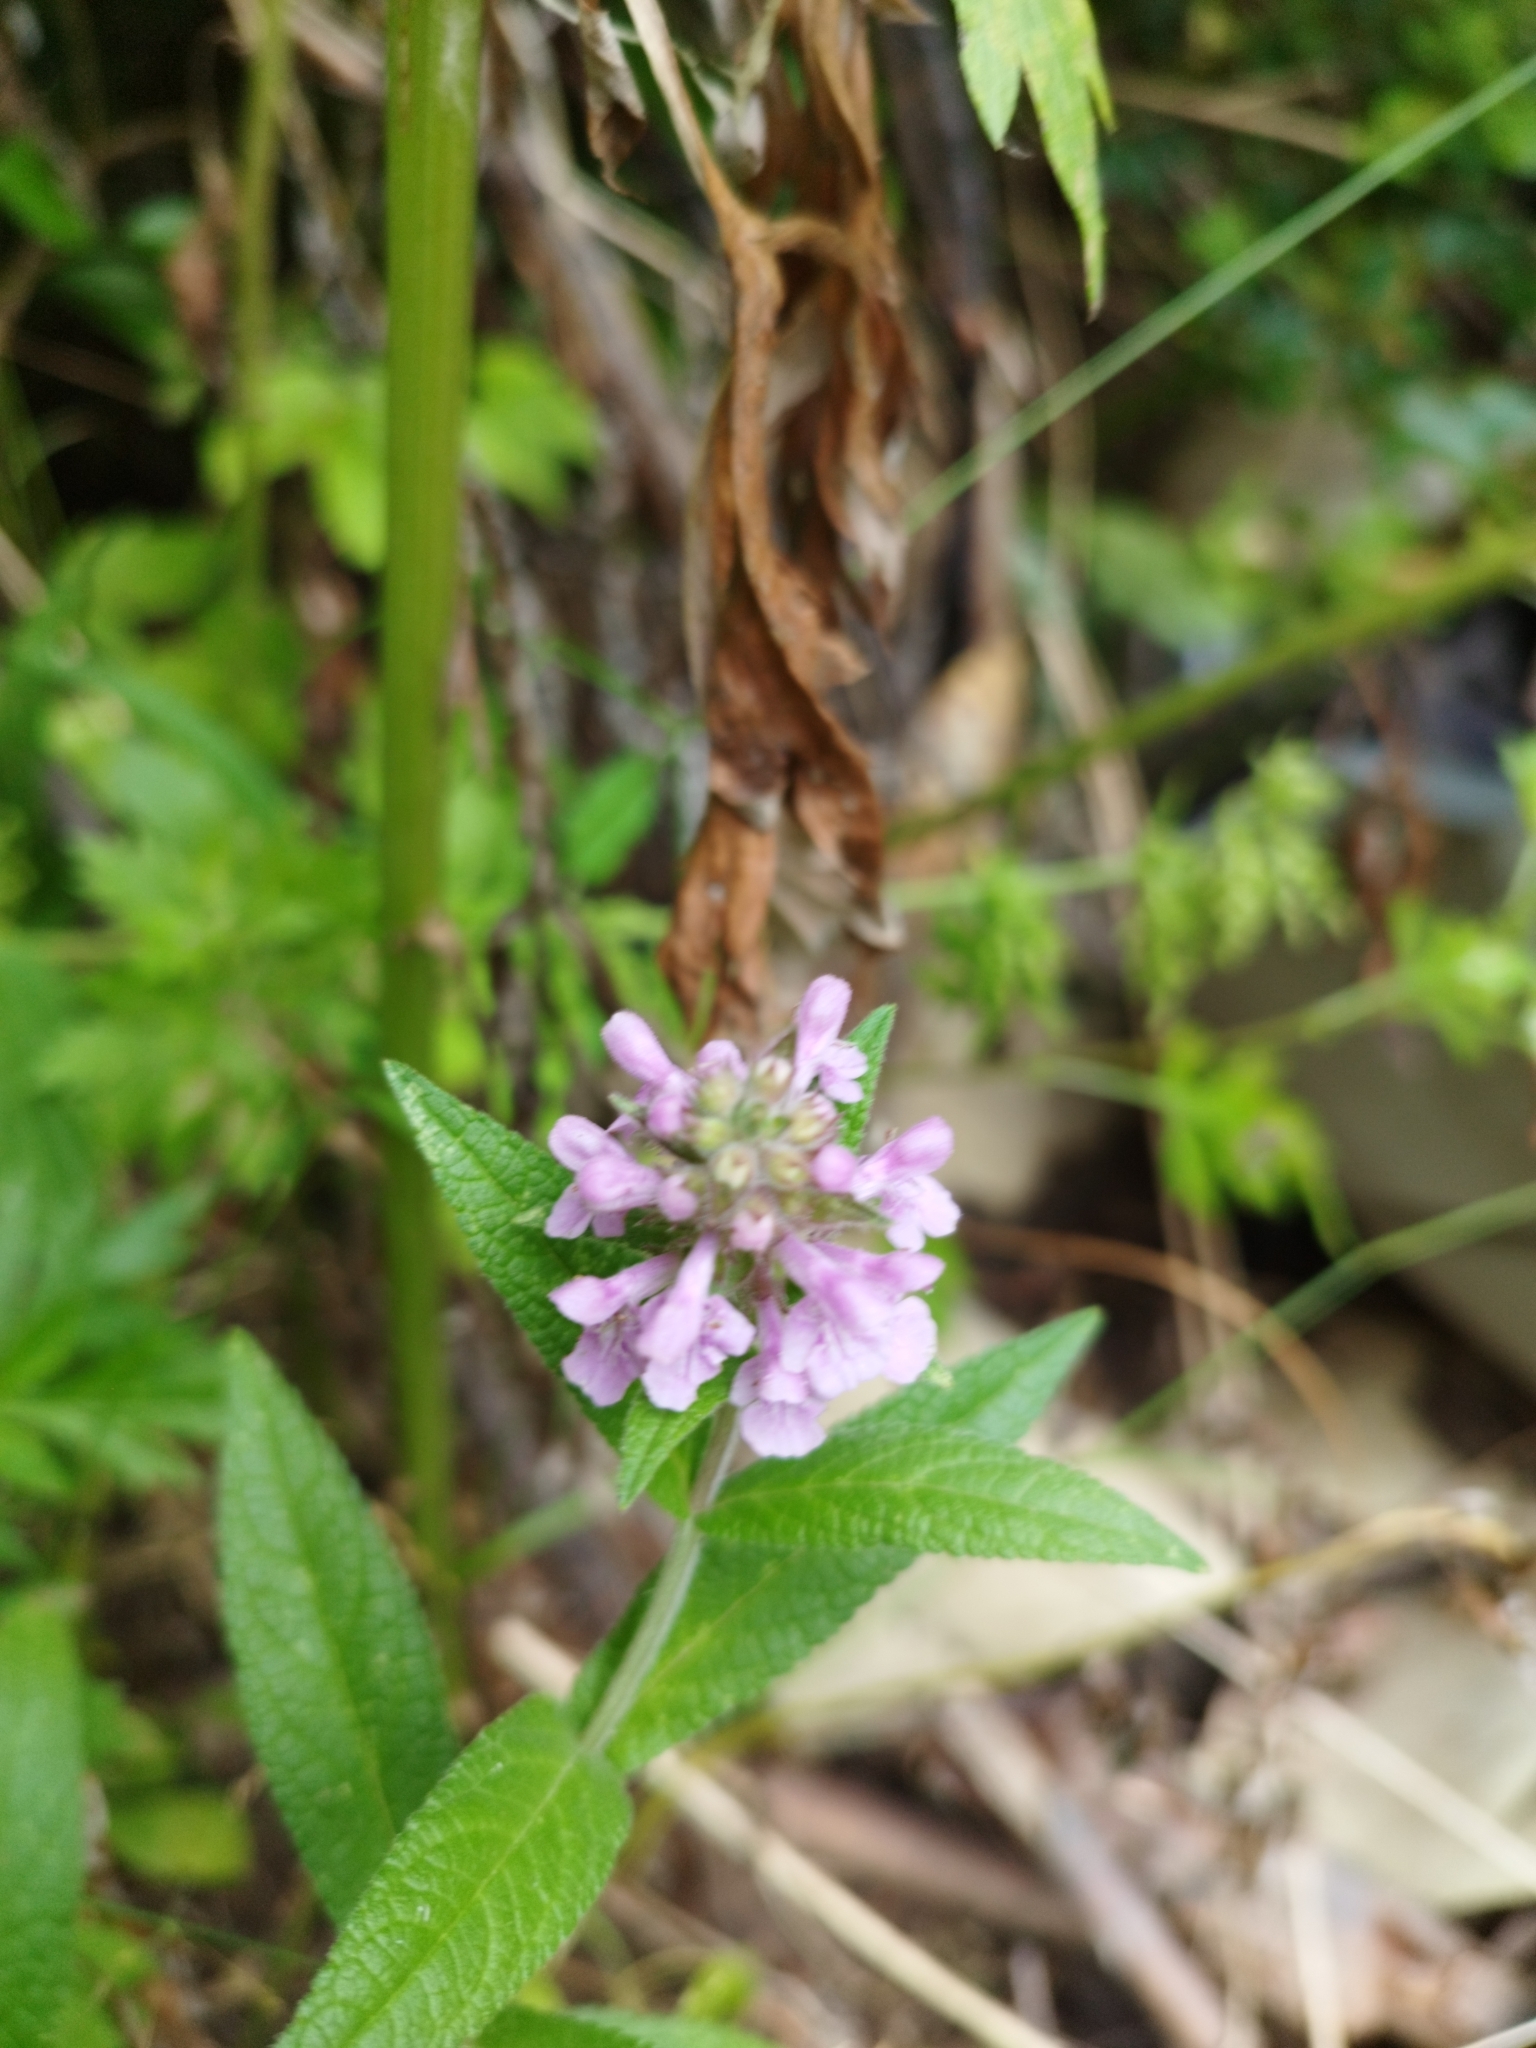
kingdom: Plantae
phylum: Tracheophyta
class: Magnoliopsida
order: Lamiales
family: Lamiaceae
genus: Stachys
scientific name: Stachys palustris
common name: Marsh woundwort
